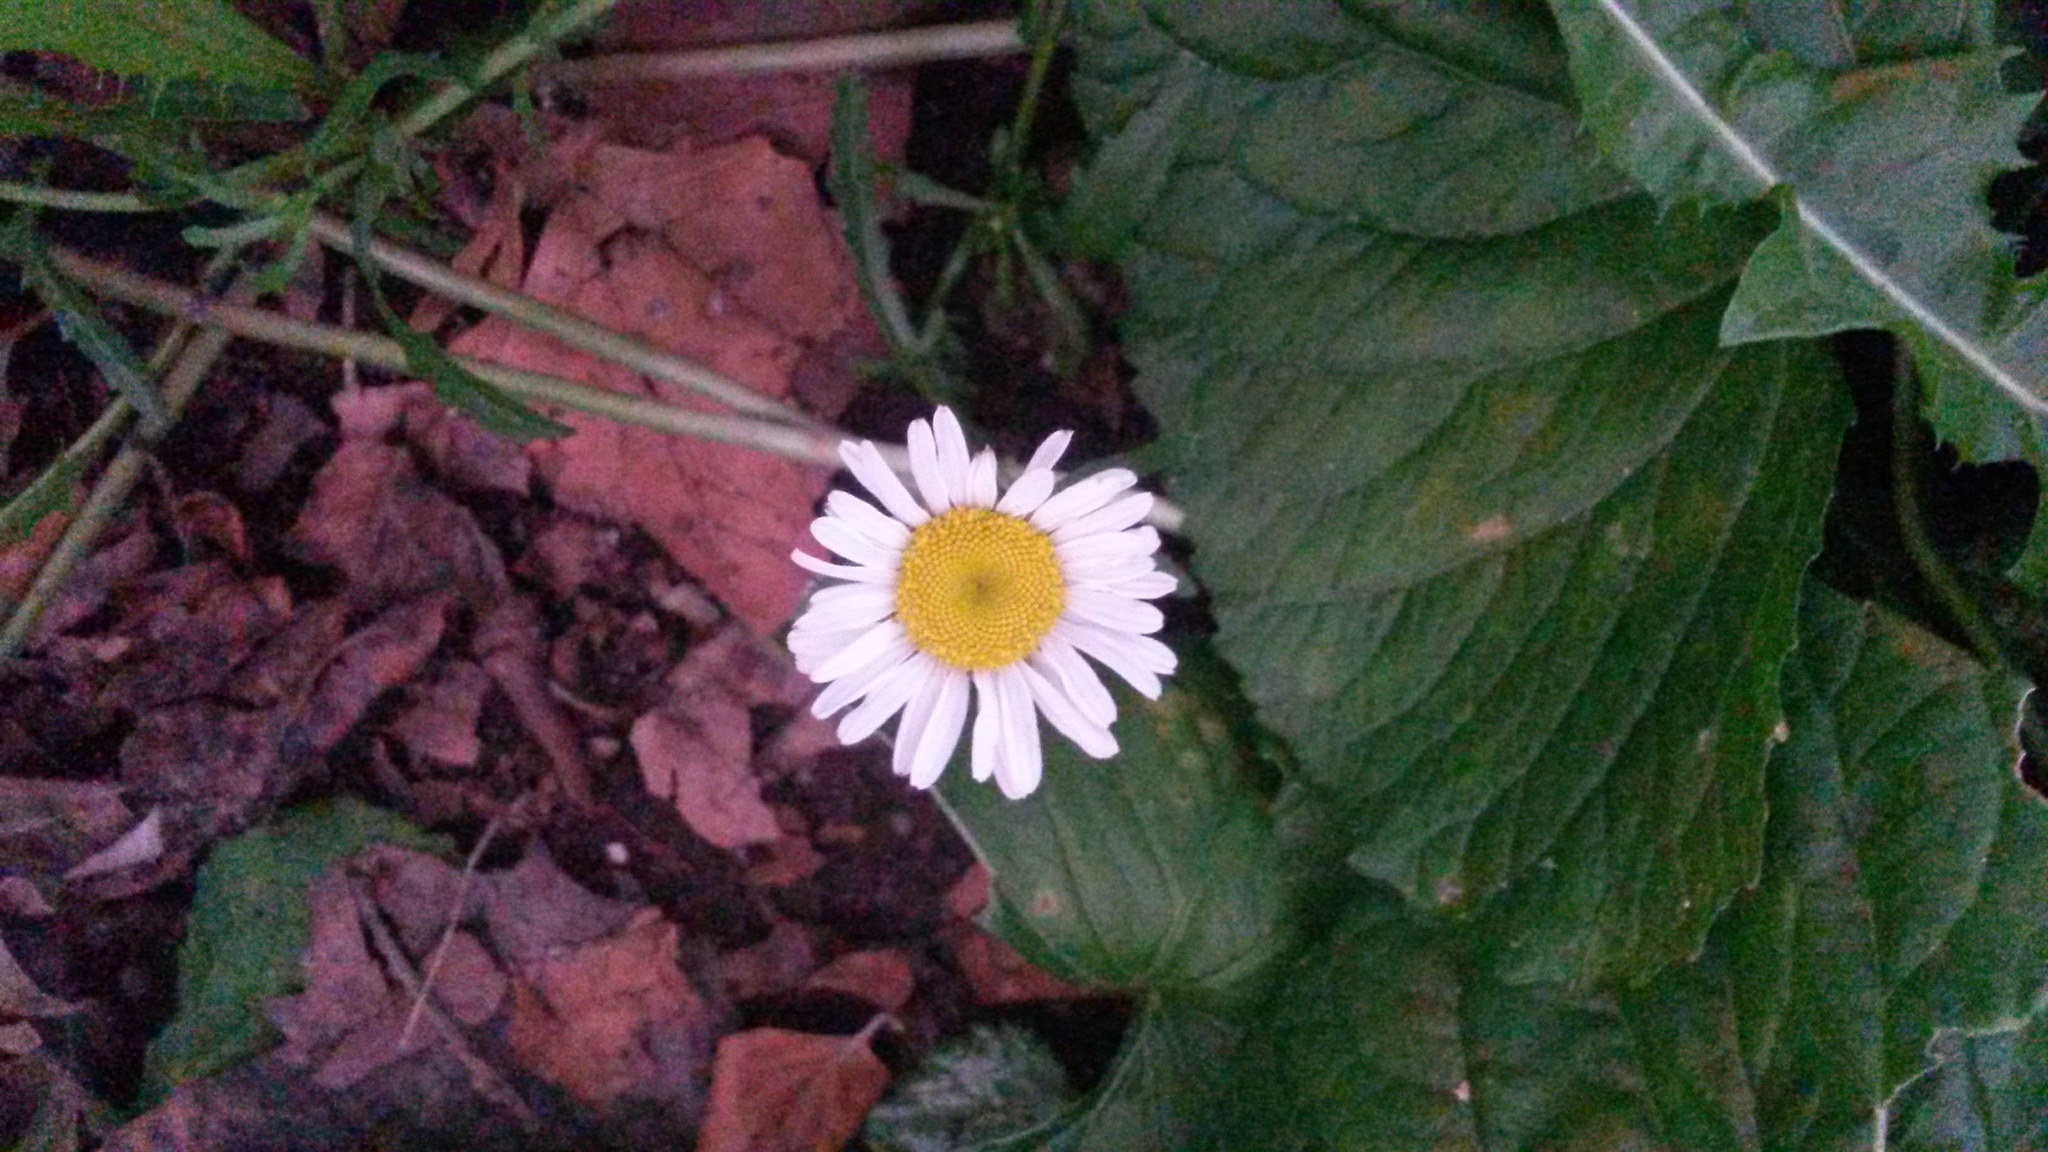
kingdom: Plantae
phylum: Tracheophyta
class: Magnoliopsida
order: Asterales
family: Asteraceae
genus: Leucanthemum
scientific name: Leucanthemum vulgare
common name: Oxeye daisy
